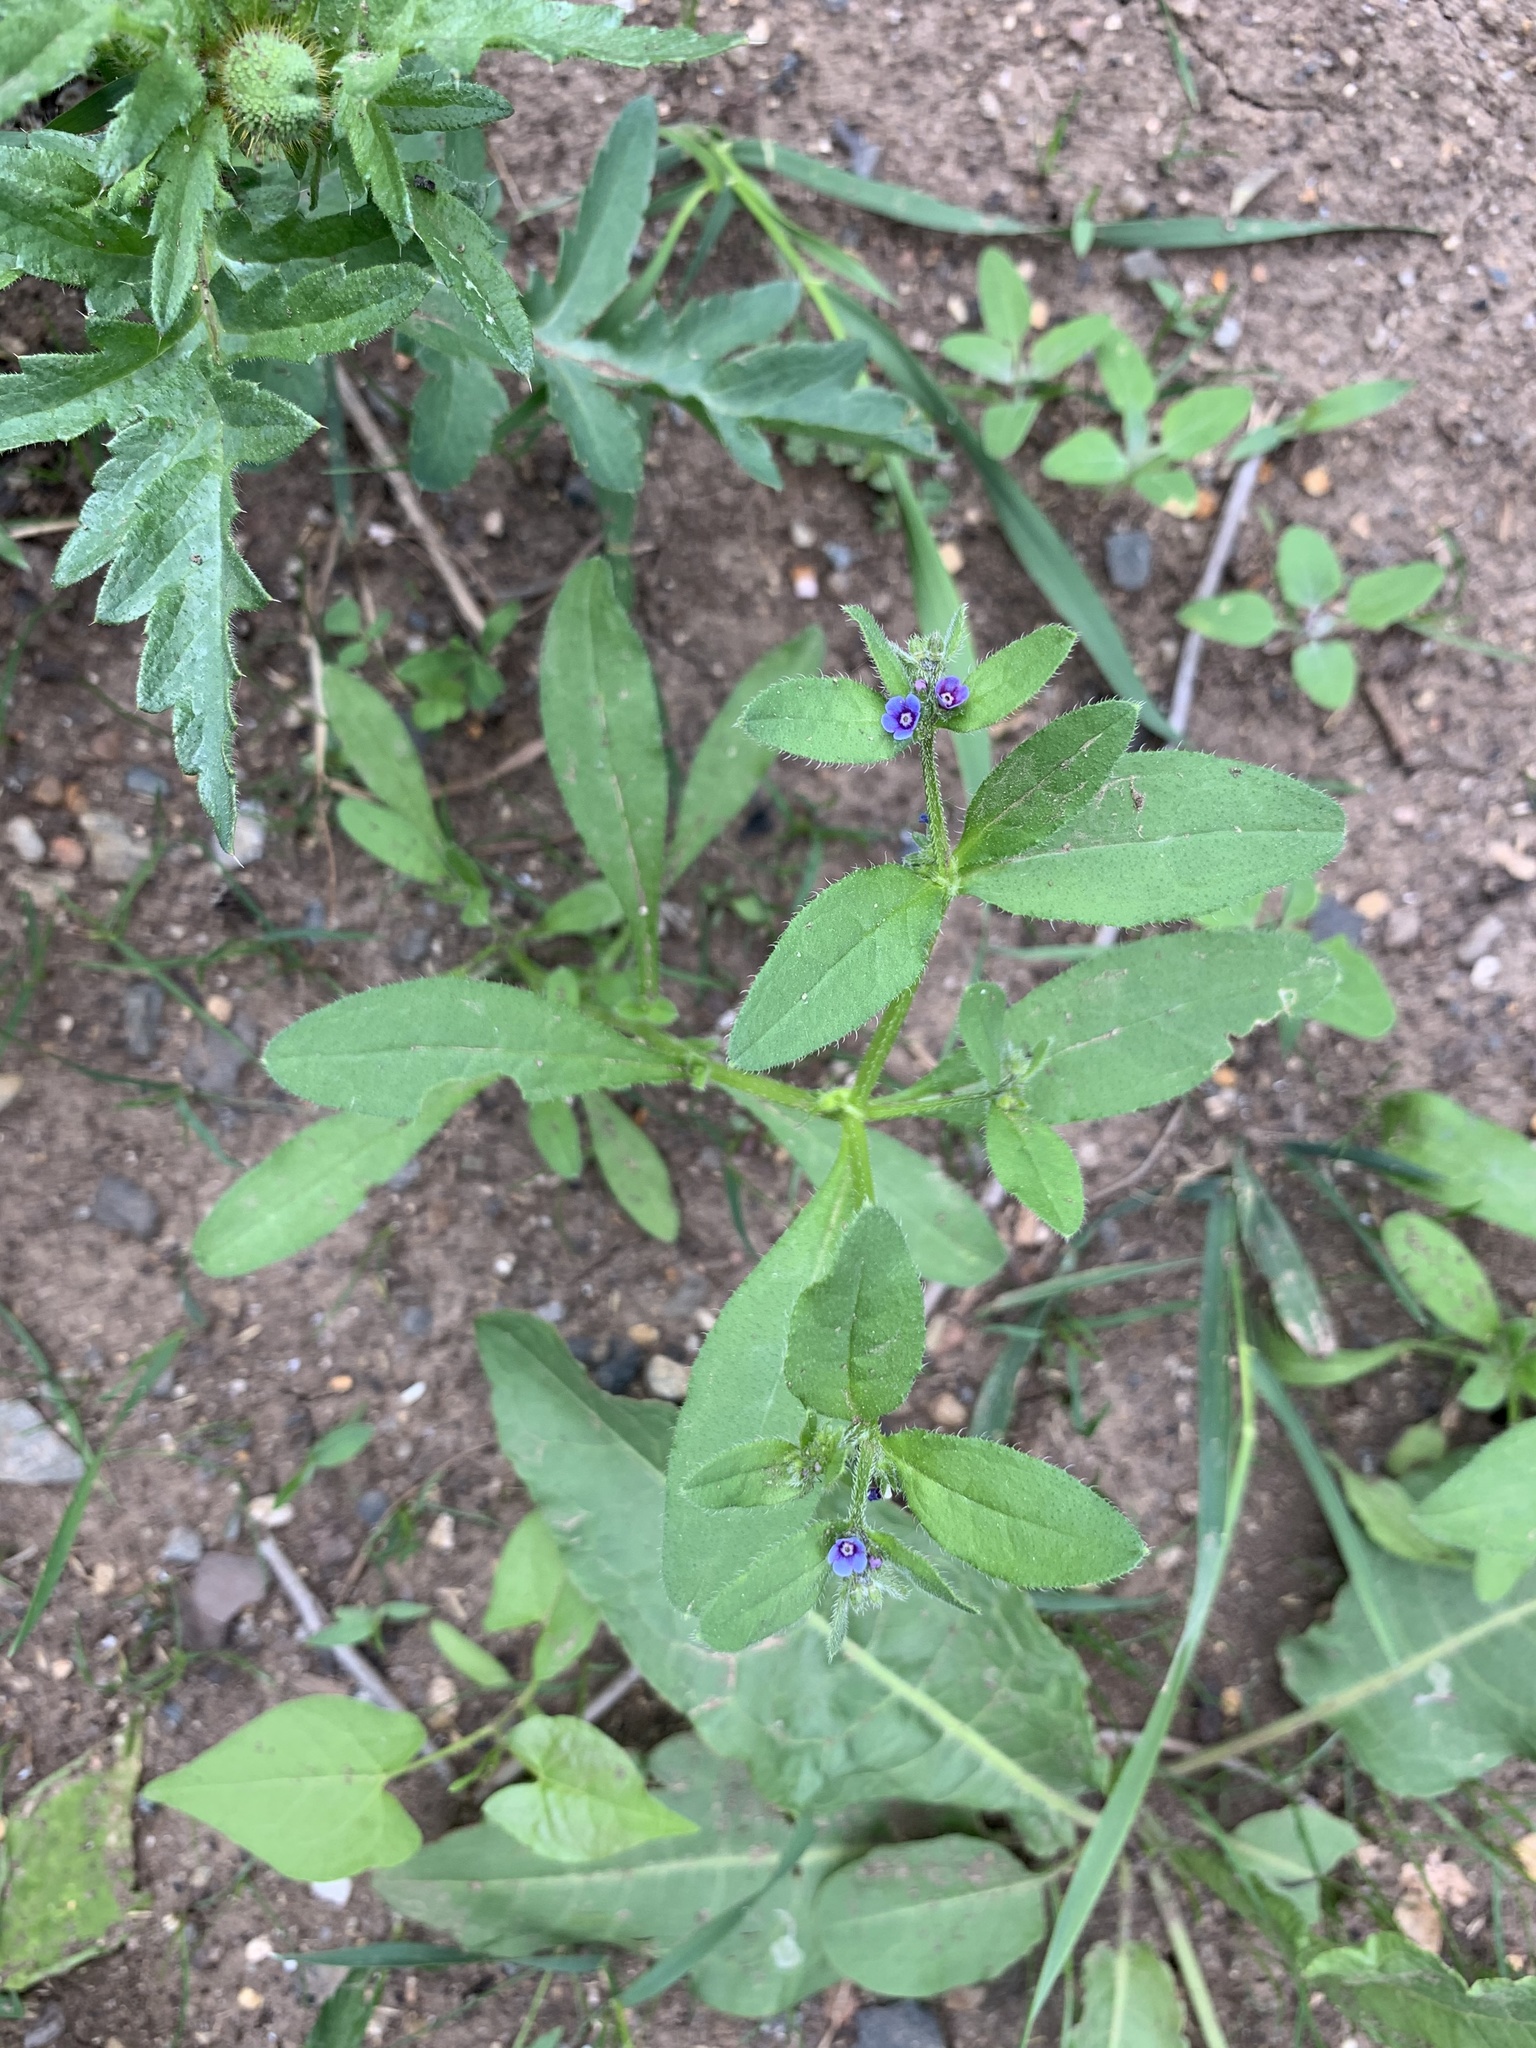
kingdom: Plantae
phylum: Tracheophyta
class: Magnoliopsida
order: Boraginales
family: Boraginaceae
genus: Asperugo
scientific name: Asperugo procumbens
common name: Madwort
